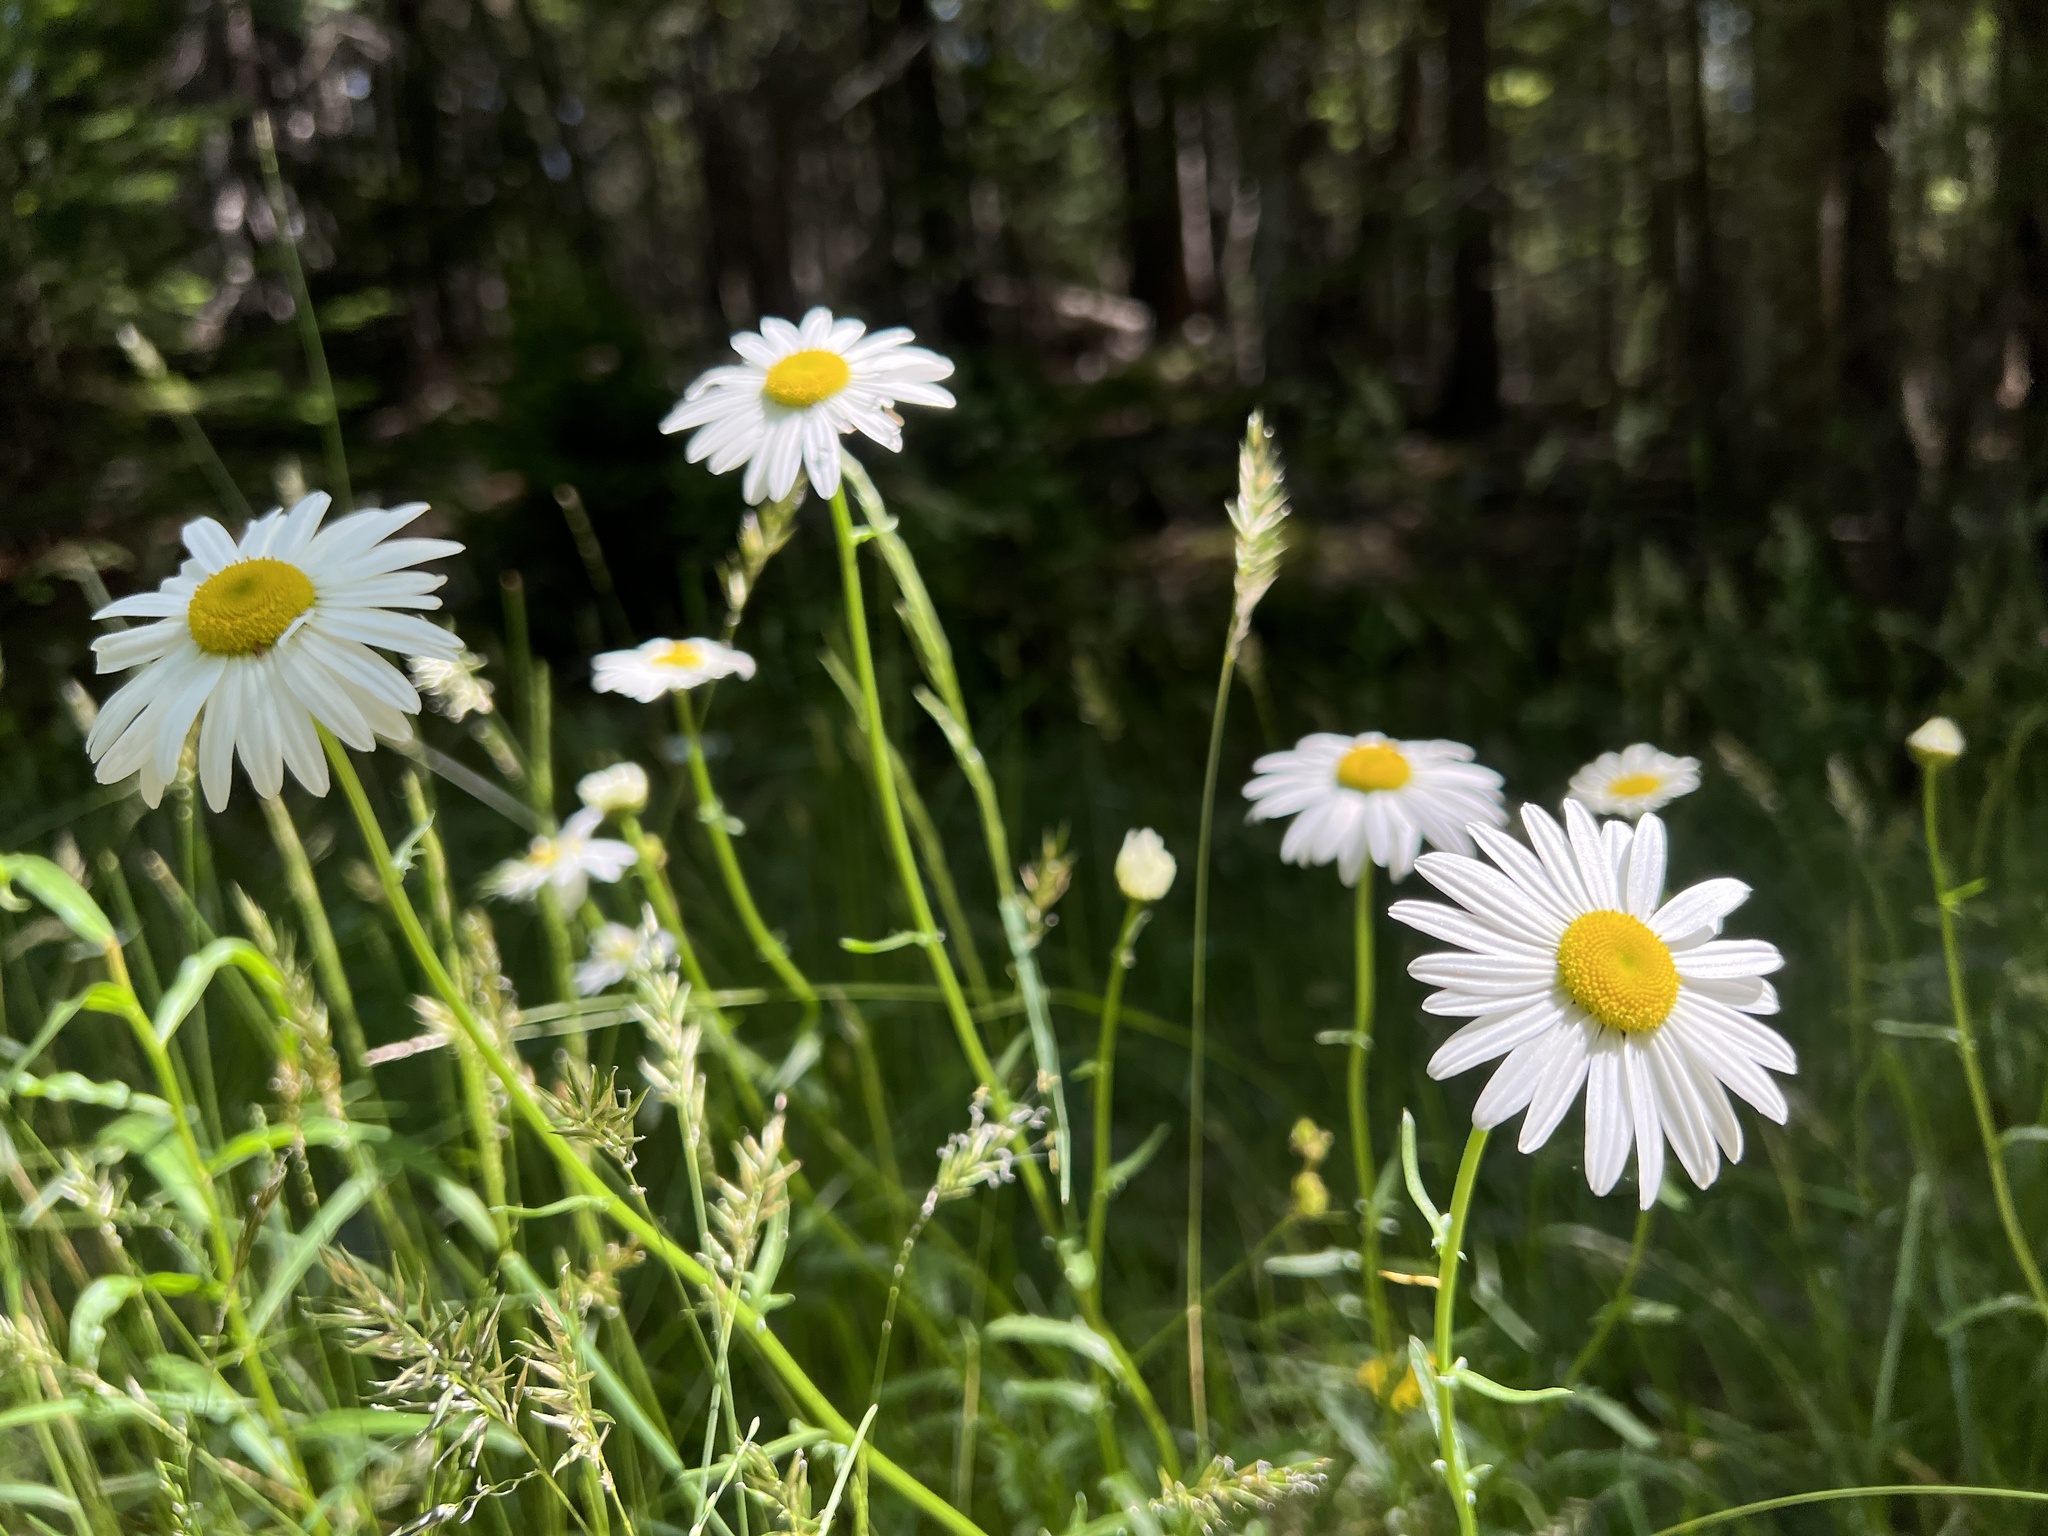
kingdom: Plantae
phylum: Tracheophyta
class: Magnoliopsida
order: Asterales
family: Asteraceae
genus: Leucanthemum
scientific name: Leucanthemum vulgare
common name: Oxeye daisy
